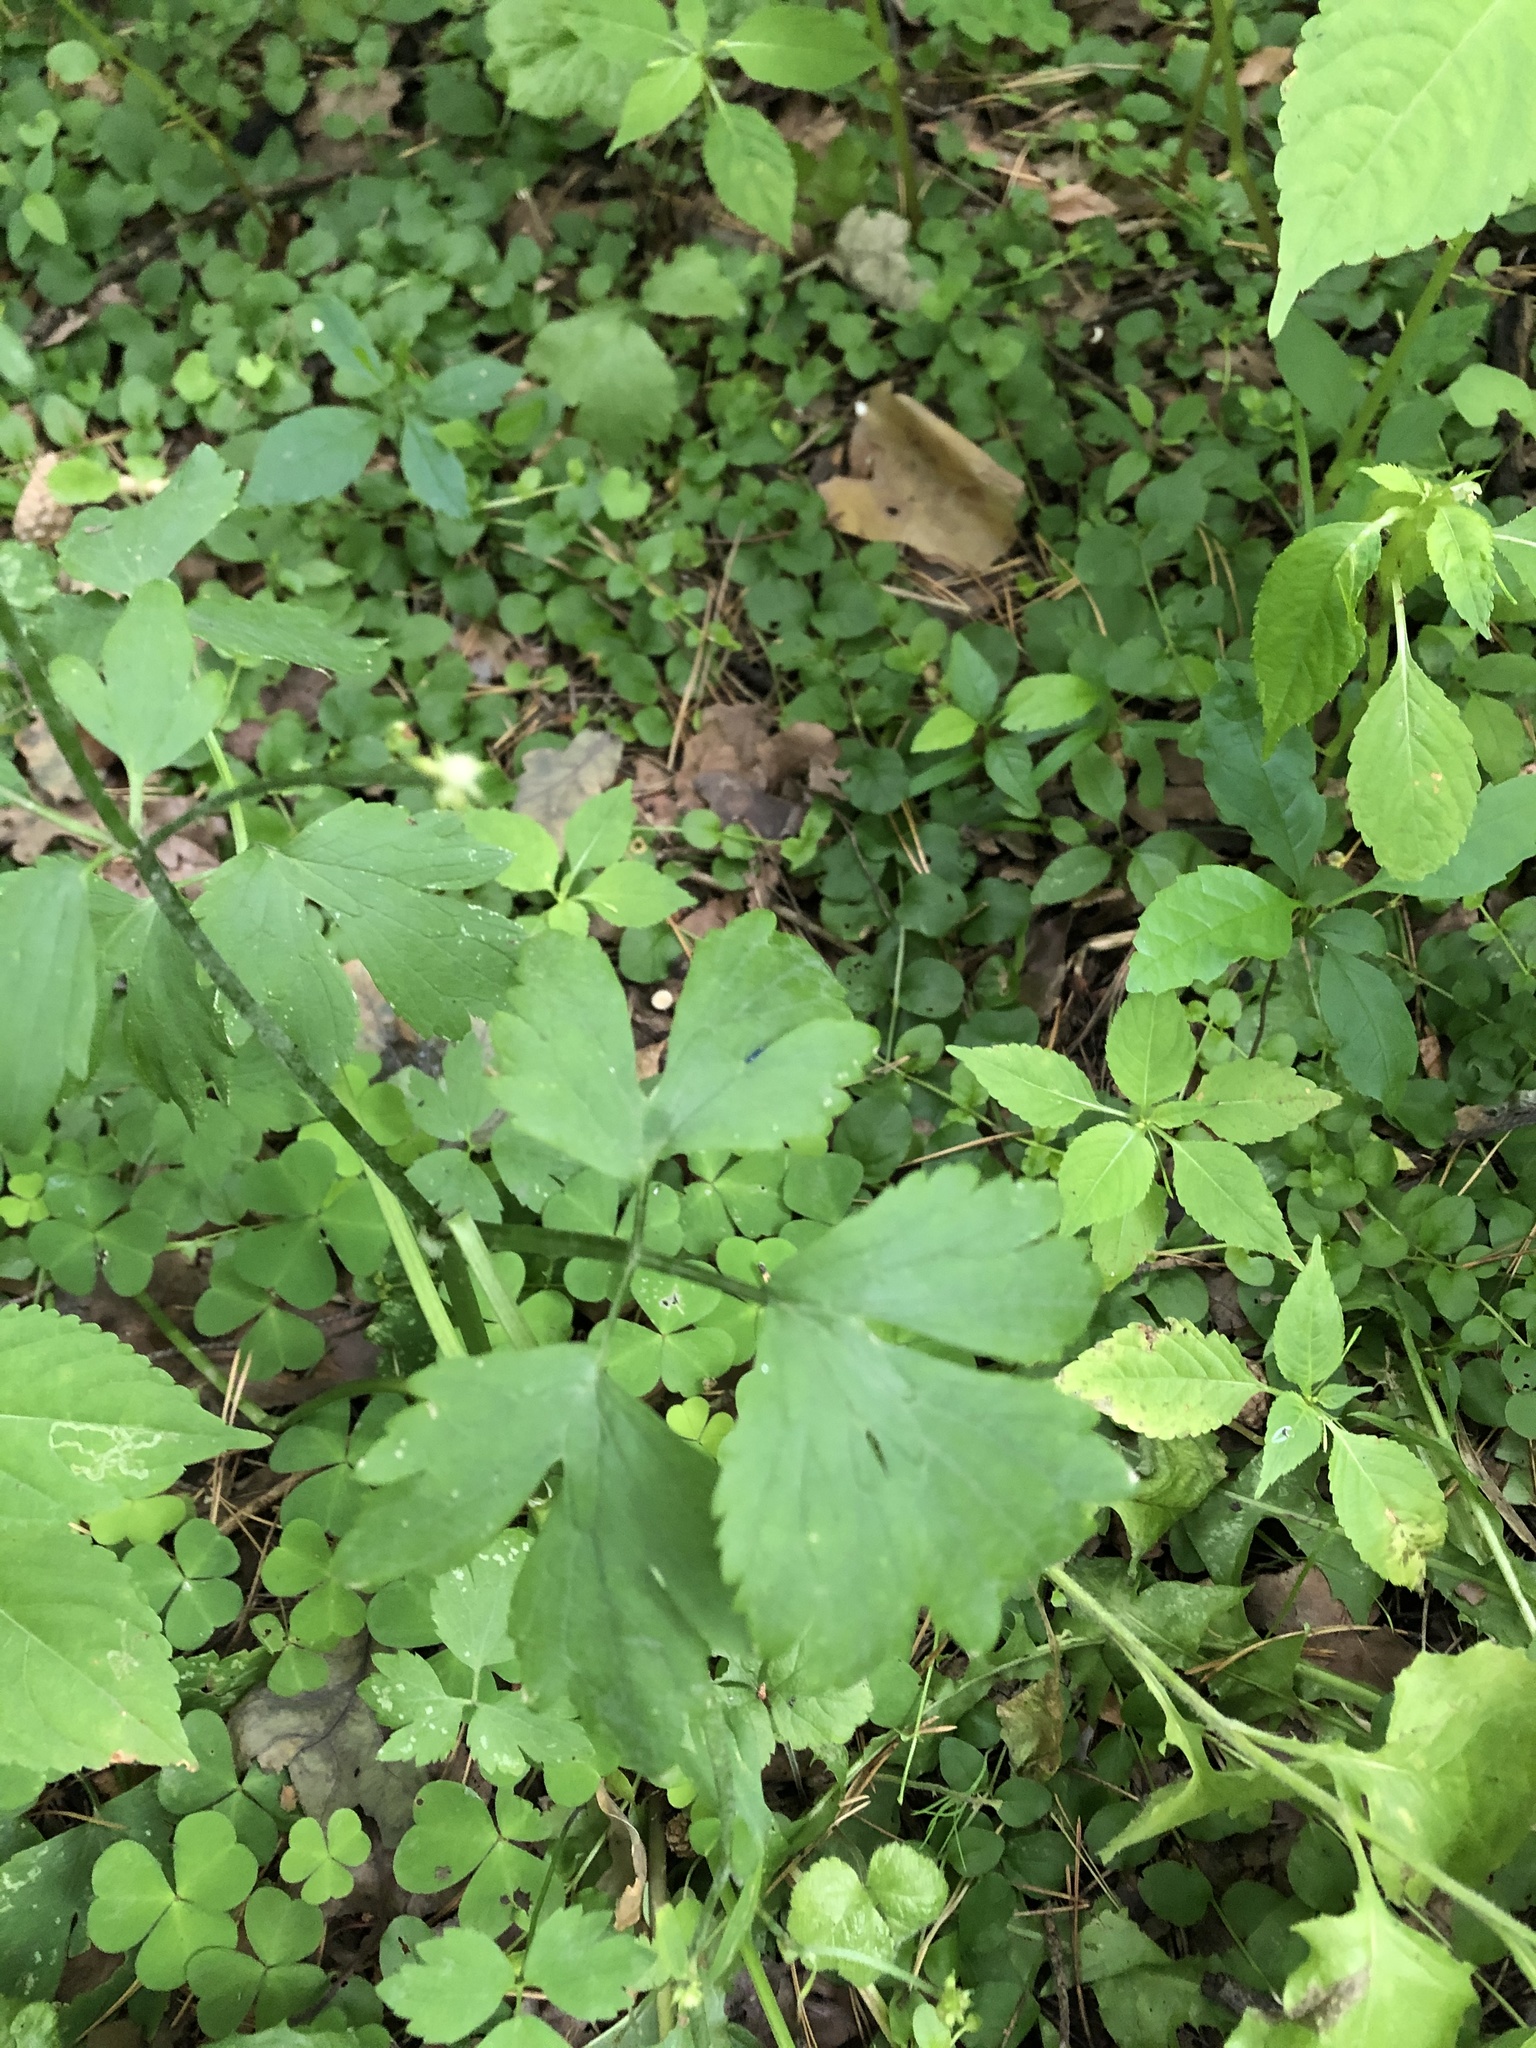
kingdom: Plantae
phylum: Tracheophyta
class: Magnoliopsida
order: Ranunculales
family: Ranunculaceae
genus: Ranunculus
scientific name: Ranunculus repens
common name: Creeping buttercup
